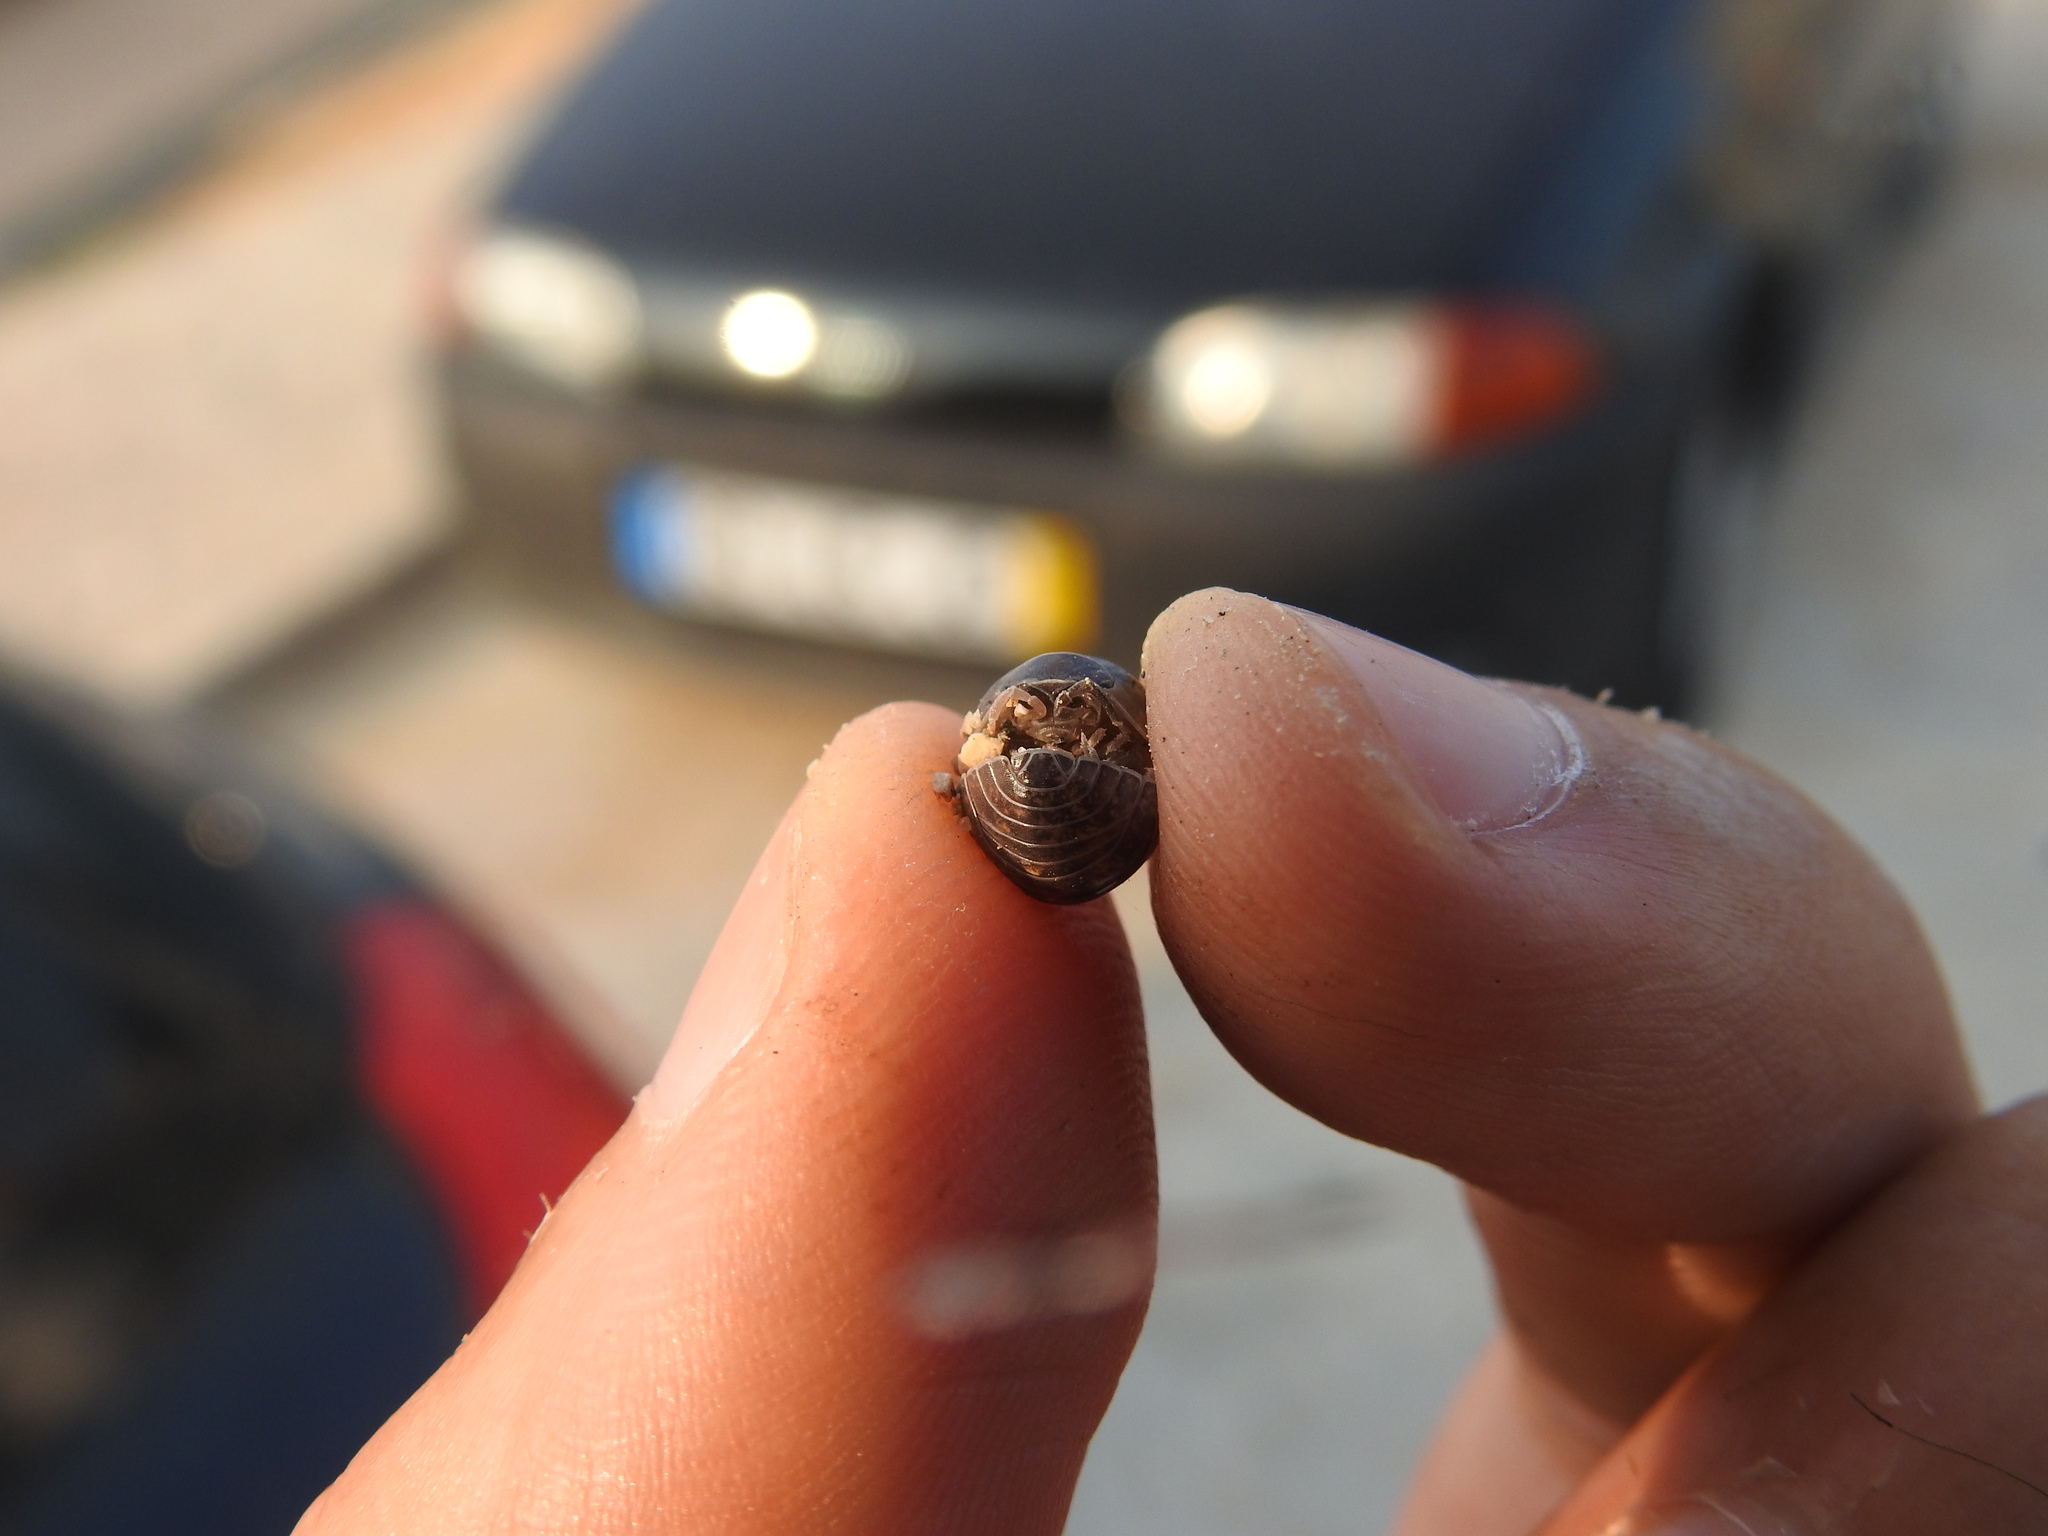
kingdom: Animalia
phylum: Arthropoda
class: Malacostraca
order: Isopoda
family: Armadillidiidae
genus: Armadillidium
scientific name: Armadillidium vulgare
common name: Common pill woodlouse
